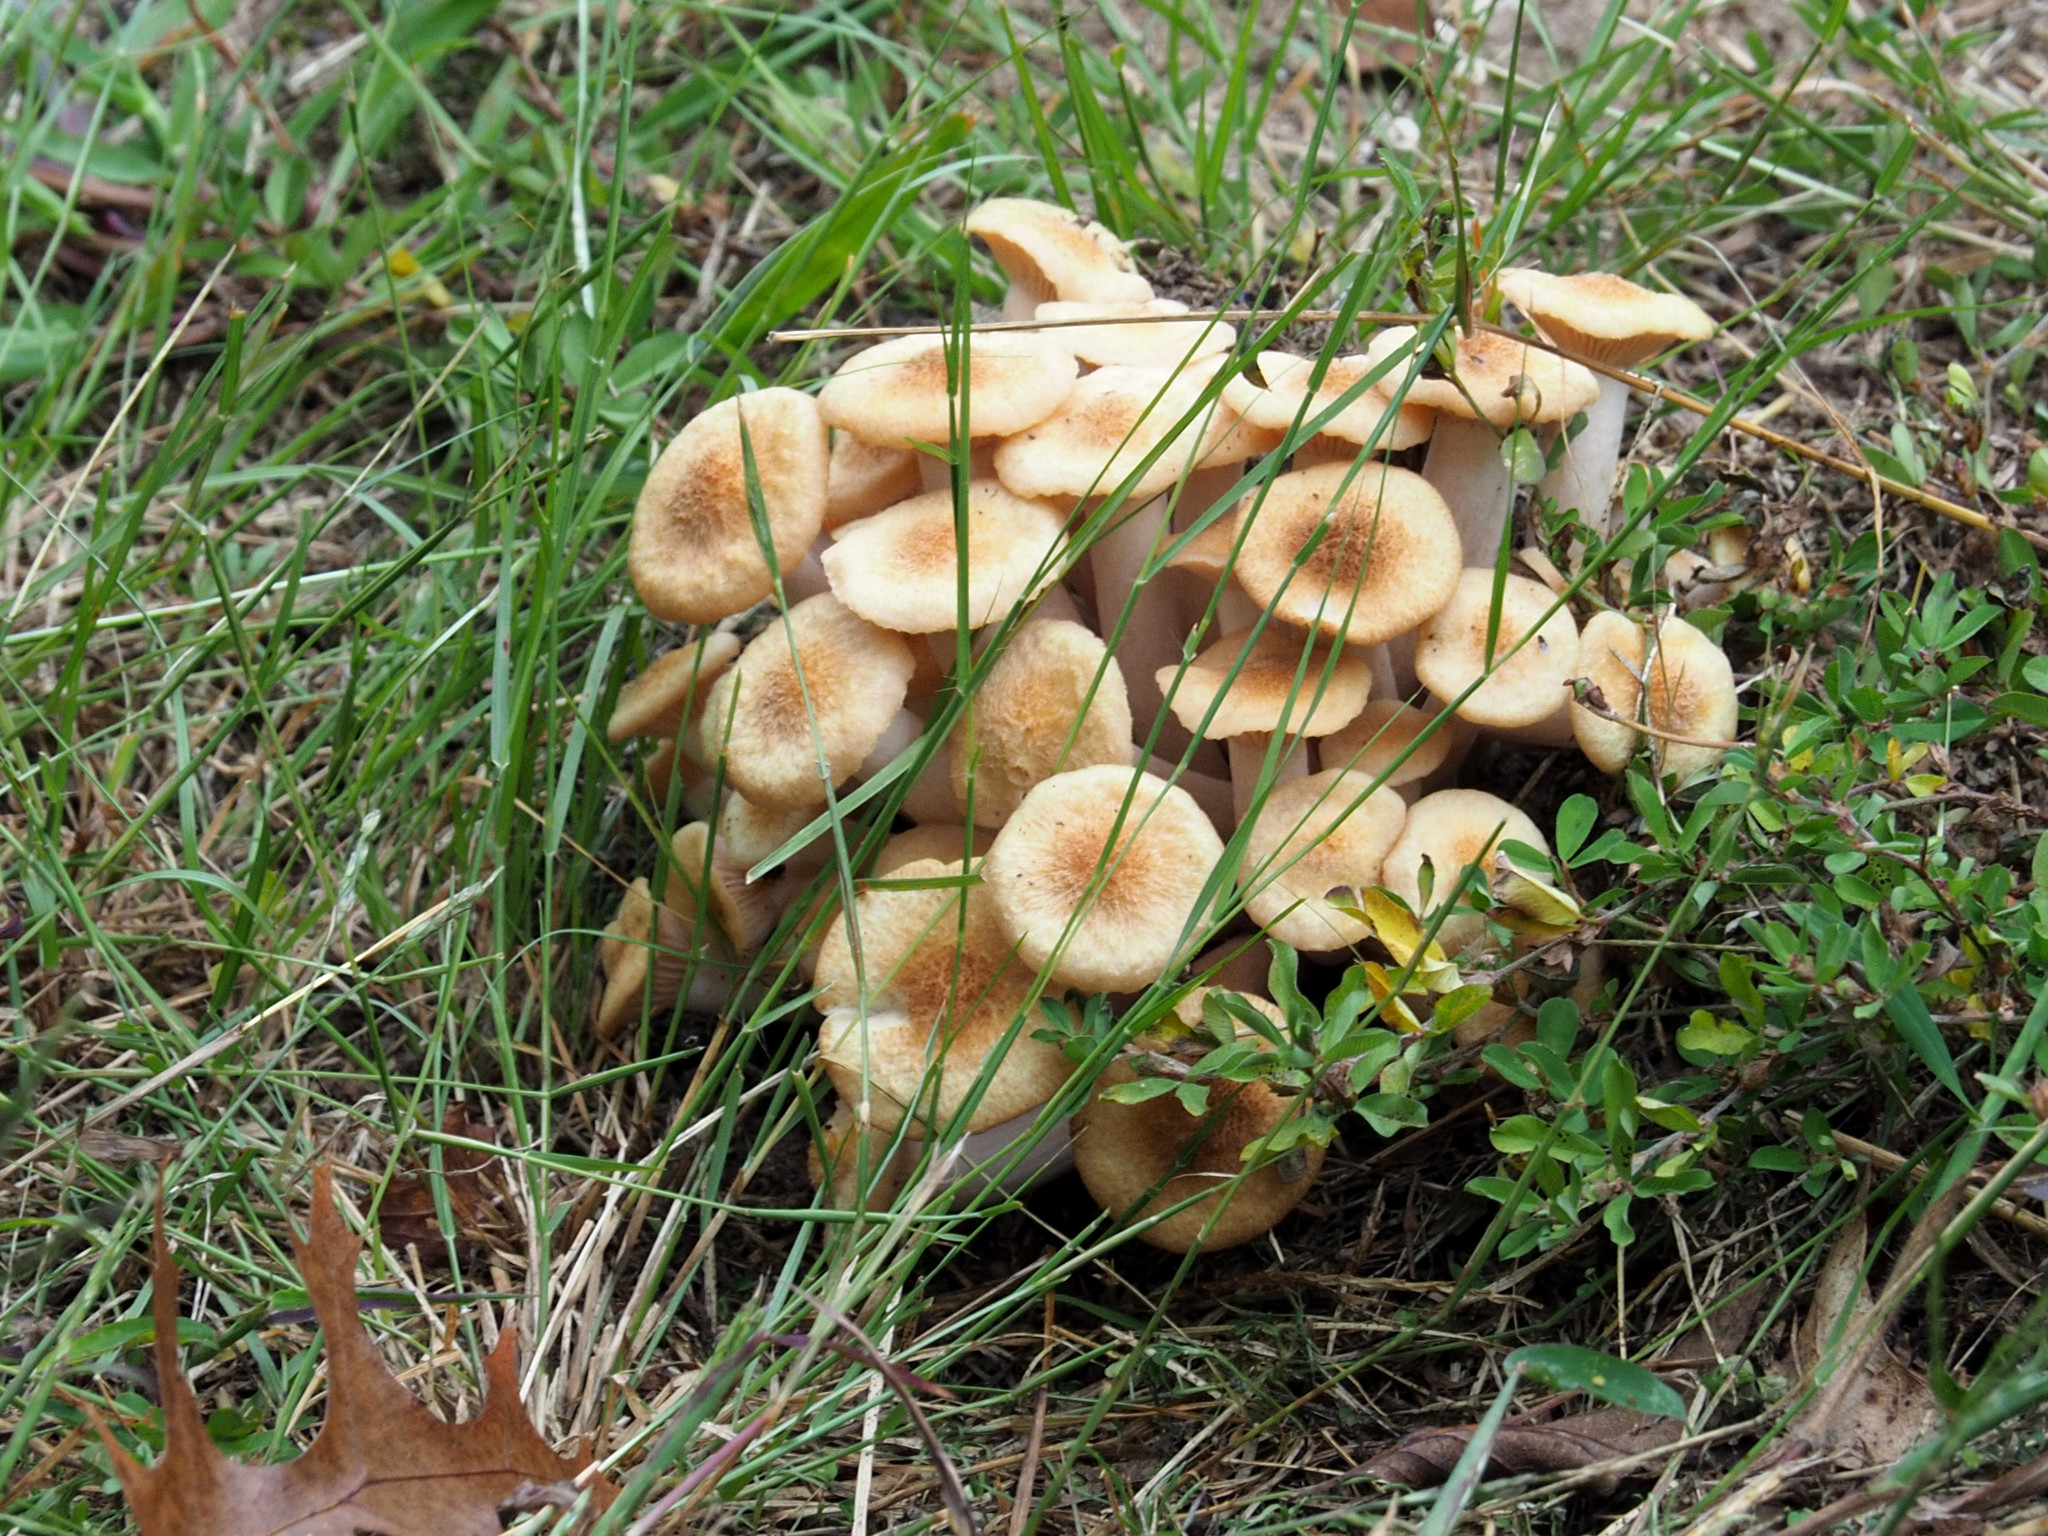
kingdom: Fungi
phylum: Basidiomycota
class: Agaricomycetes
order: Agaricales
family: Physalacriaceae
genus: Desarmillaria
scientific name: Desarmillaria caespitosa
